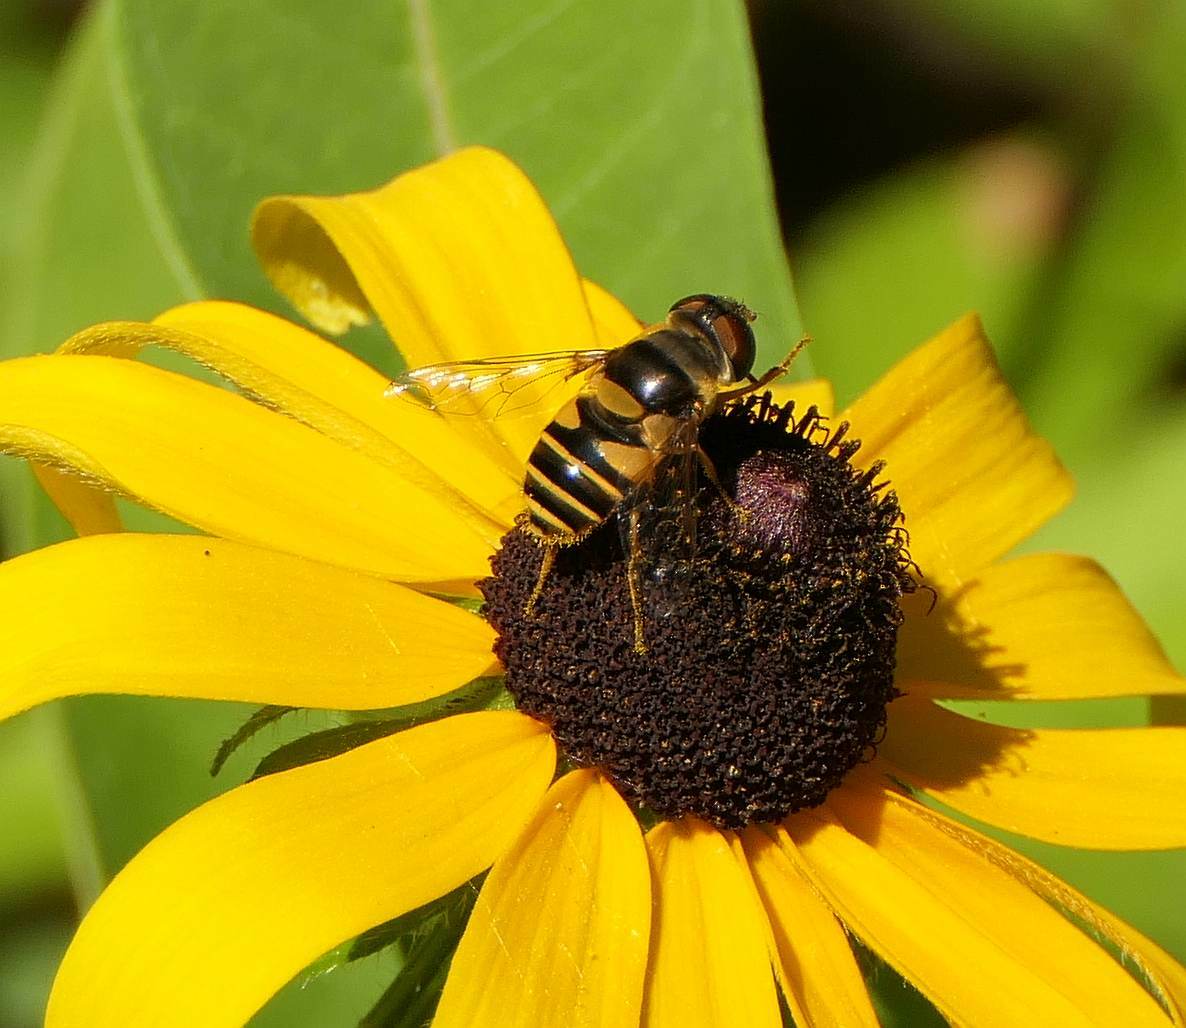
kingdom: Animalia
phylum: Arthropoda
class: Insecta
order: Diptera
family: Syrphidae
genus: Eristalis
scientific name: Eristalis transversa
